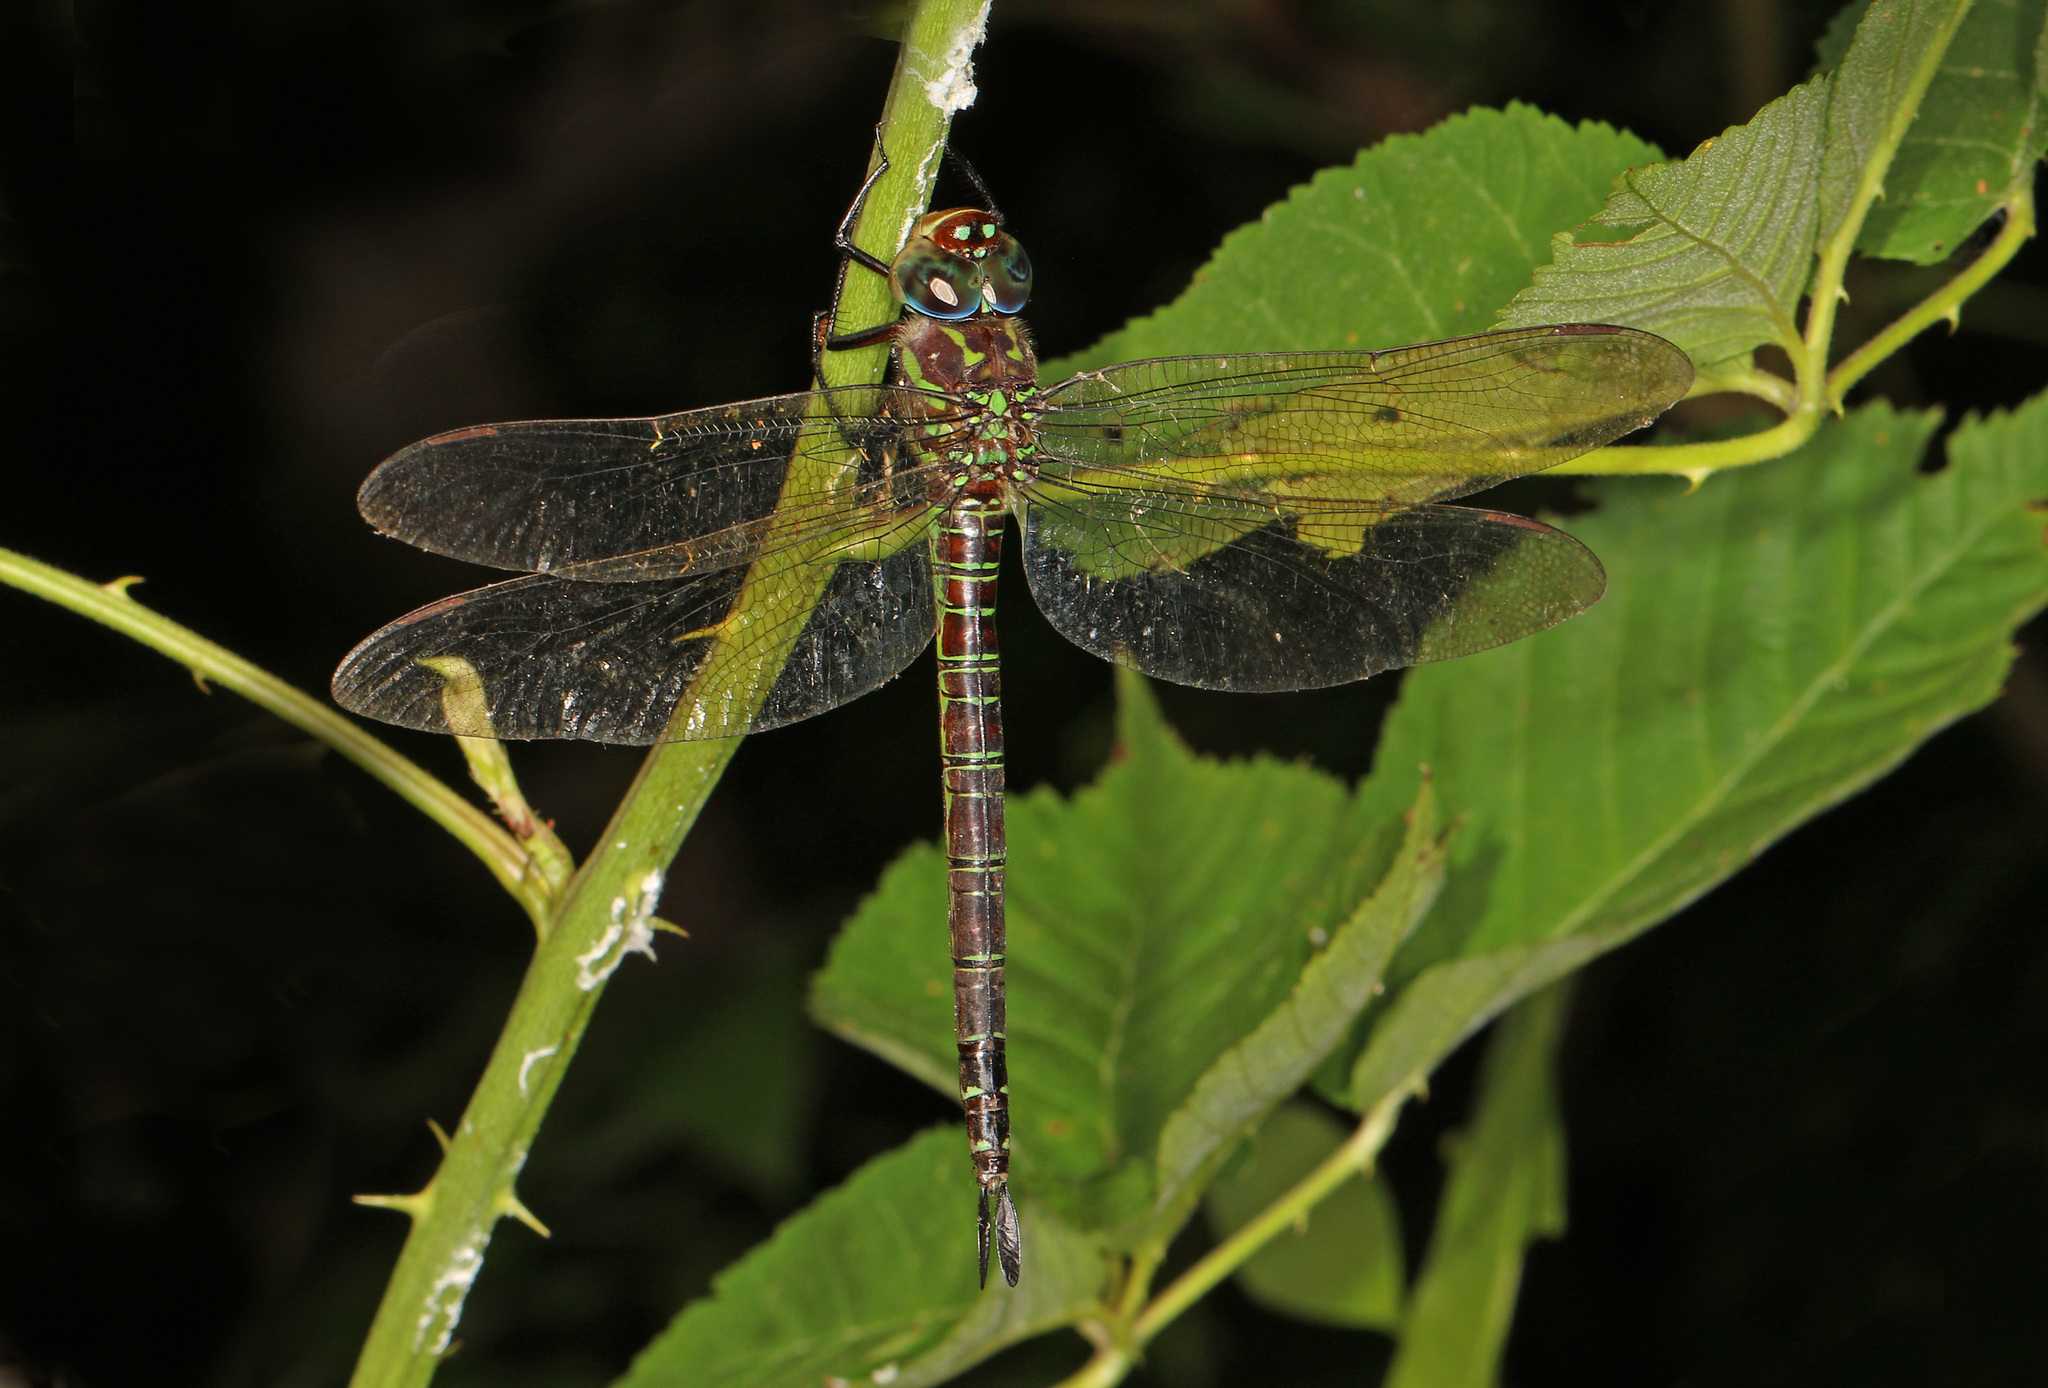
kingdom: Animalia
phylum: Arthropoda
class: Insecta
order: Odonata
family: Aeshnidae
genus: Epiaeschna
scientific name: Epiaeschna heros
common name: Swamp darner
